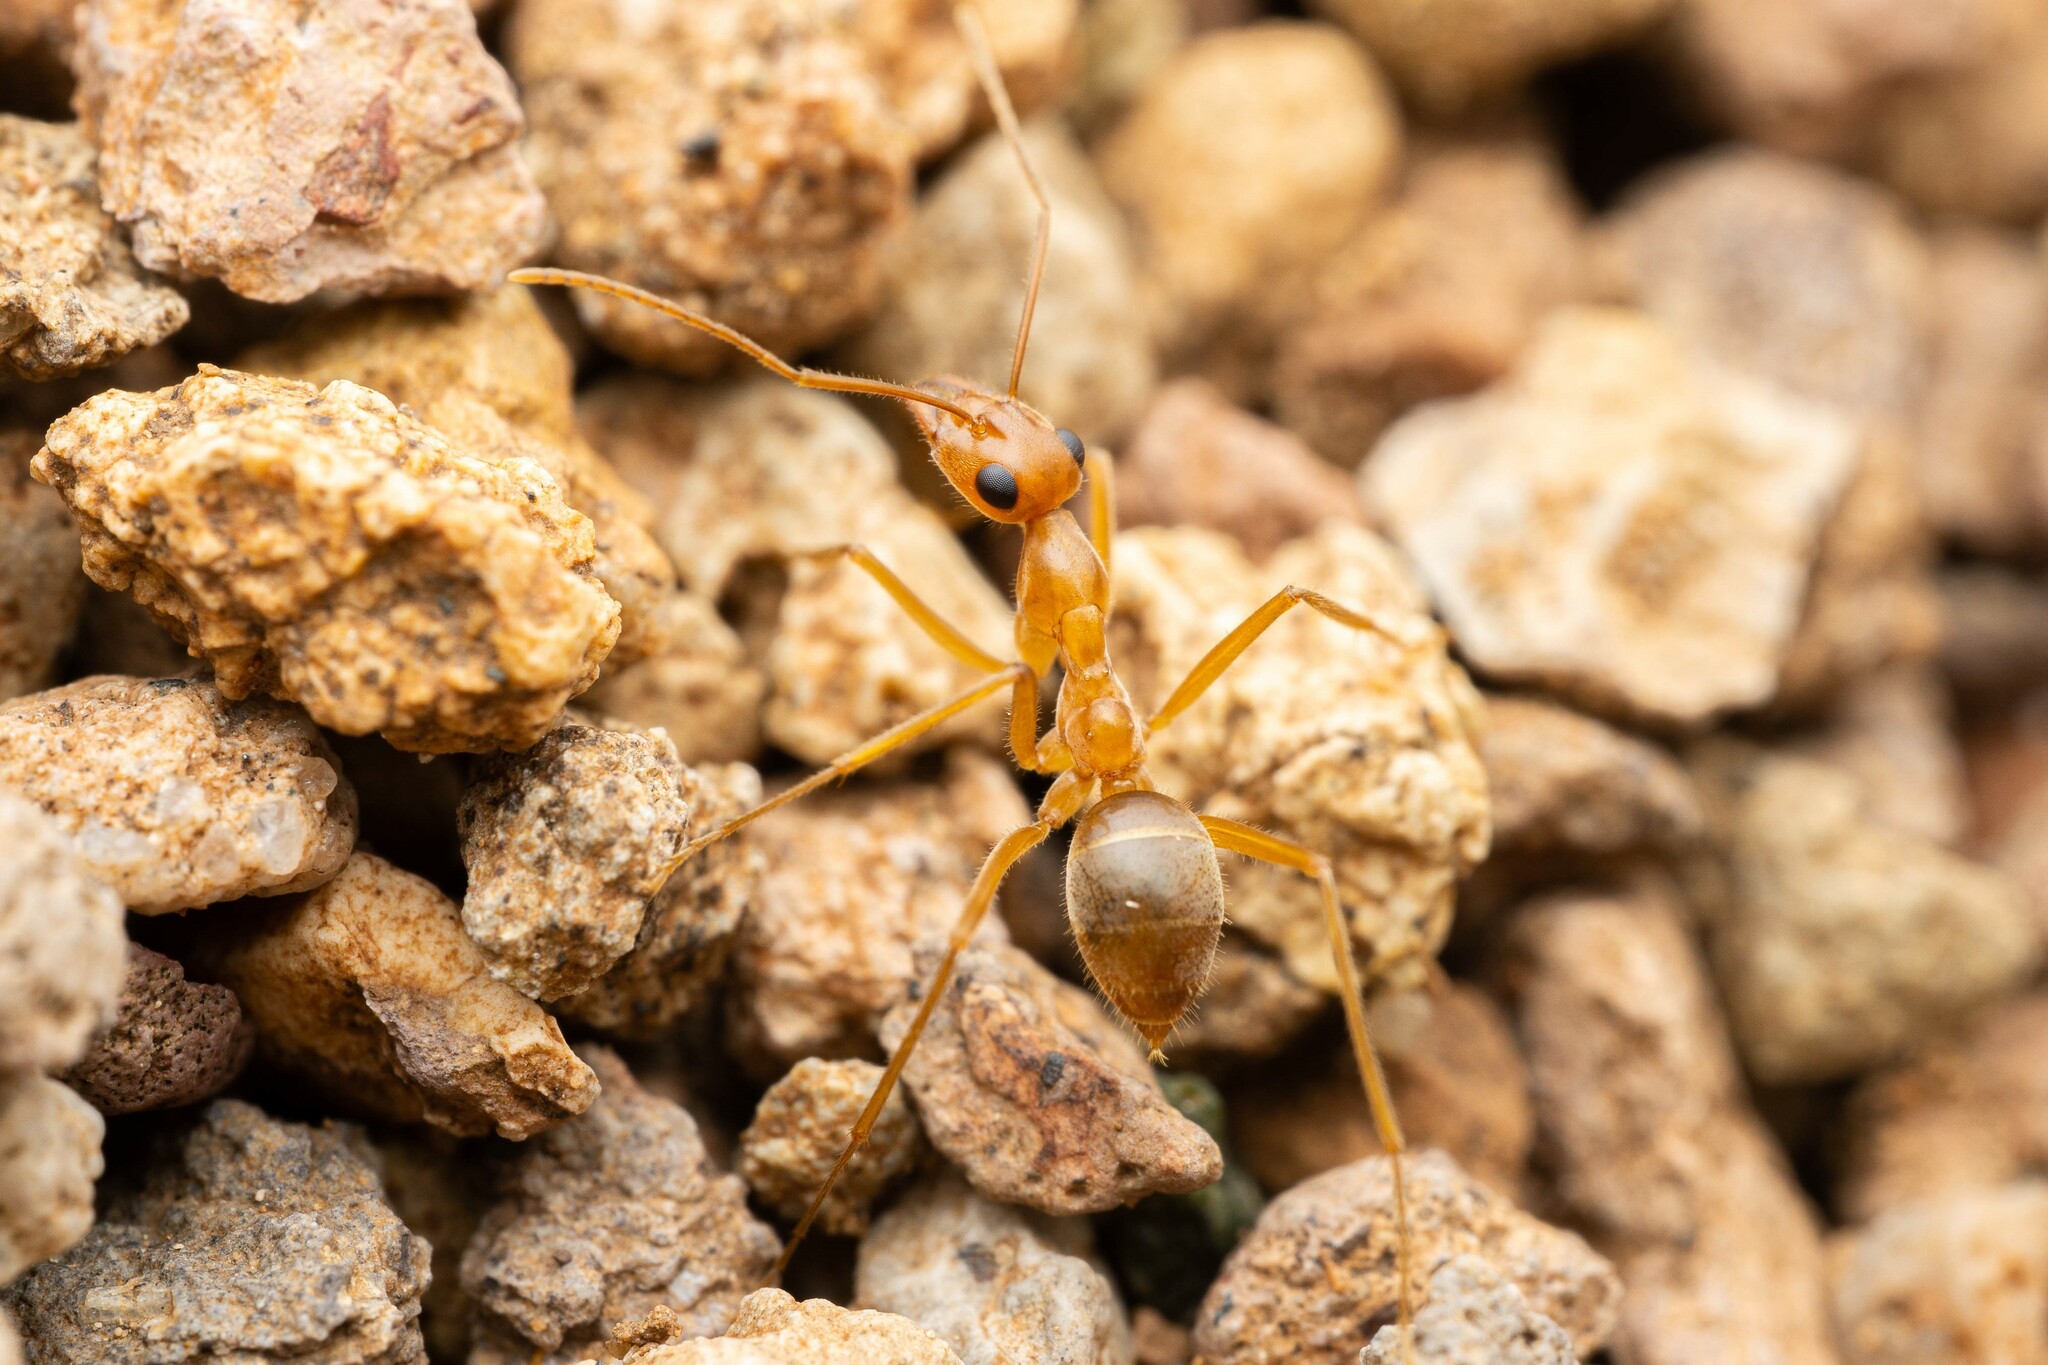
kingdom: Animalia
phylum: Arthropoda
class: Insecta
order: Hymenoptera
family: Formicidae
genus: Myrmecocystus
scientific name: Myrmecocystus mexicanus
